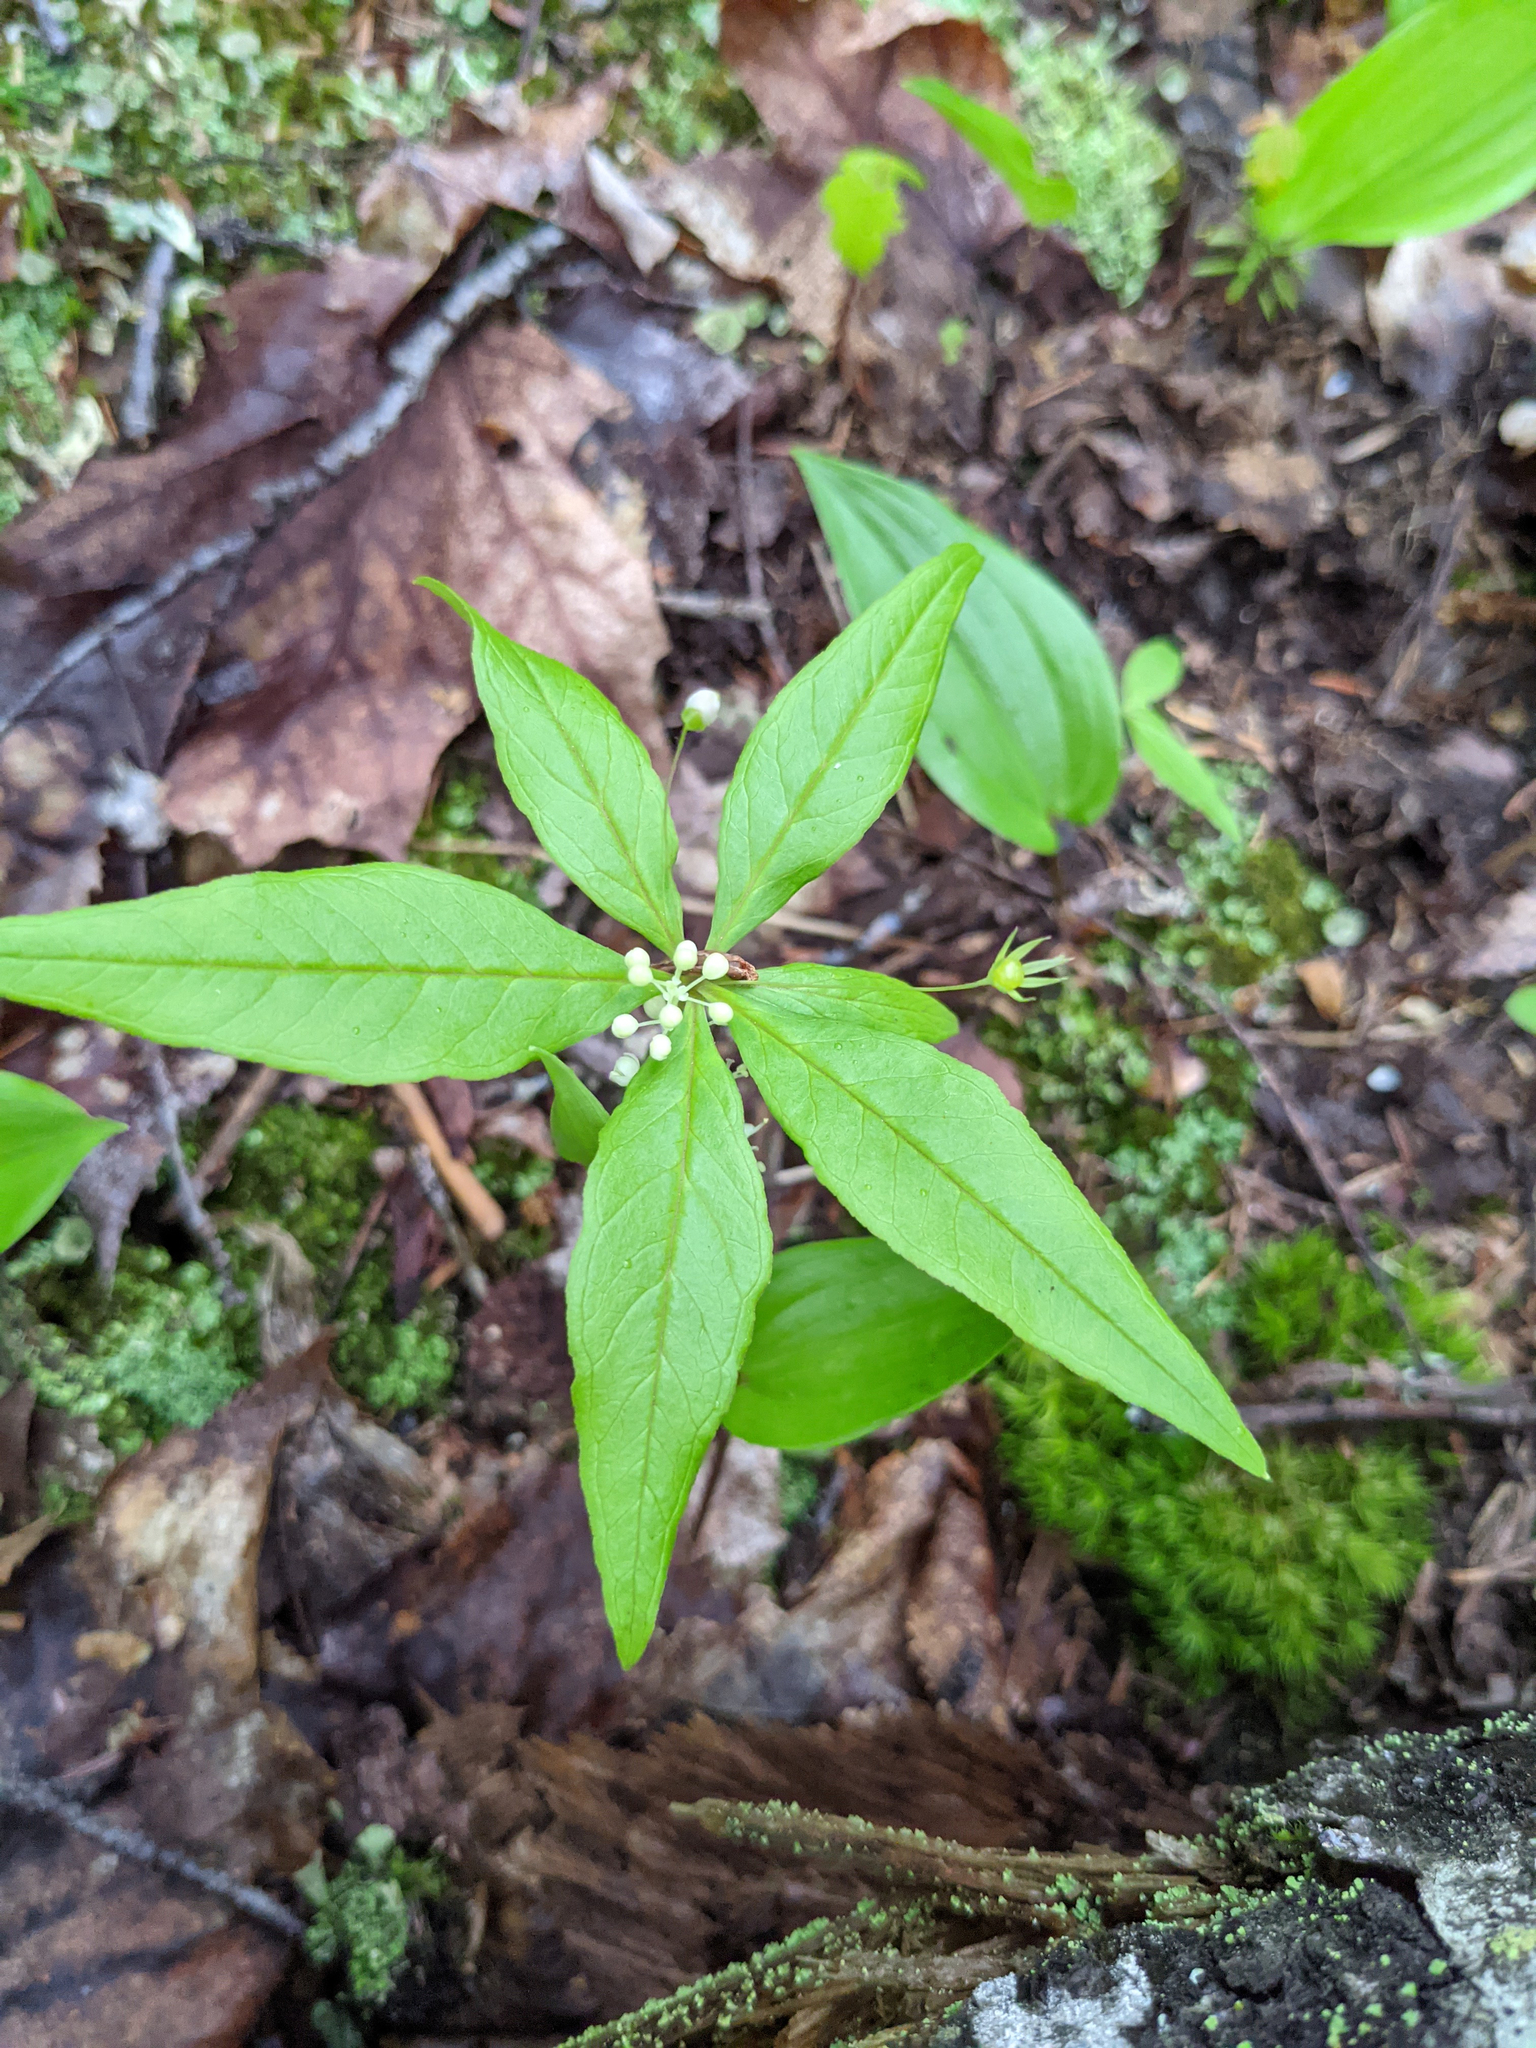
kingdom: Plantae
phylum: Tracheophyta
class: Magnoliopsida
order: Ericales
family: Primulaceae
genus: Lysimachia
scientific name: Lysimachia borealis
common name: American starflower
